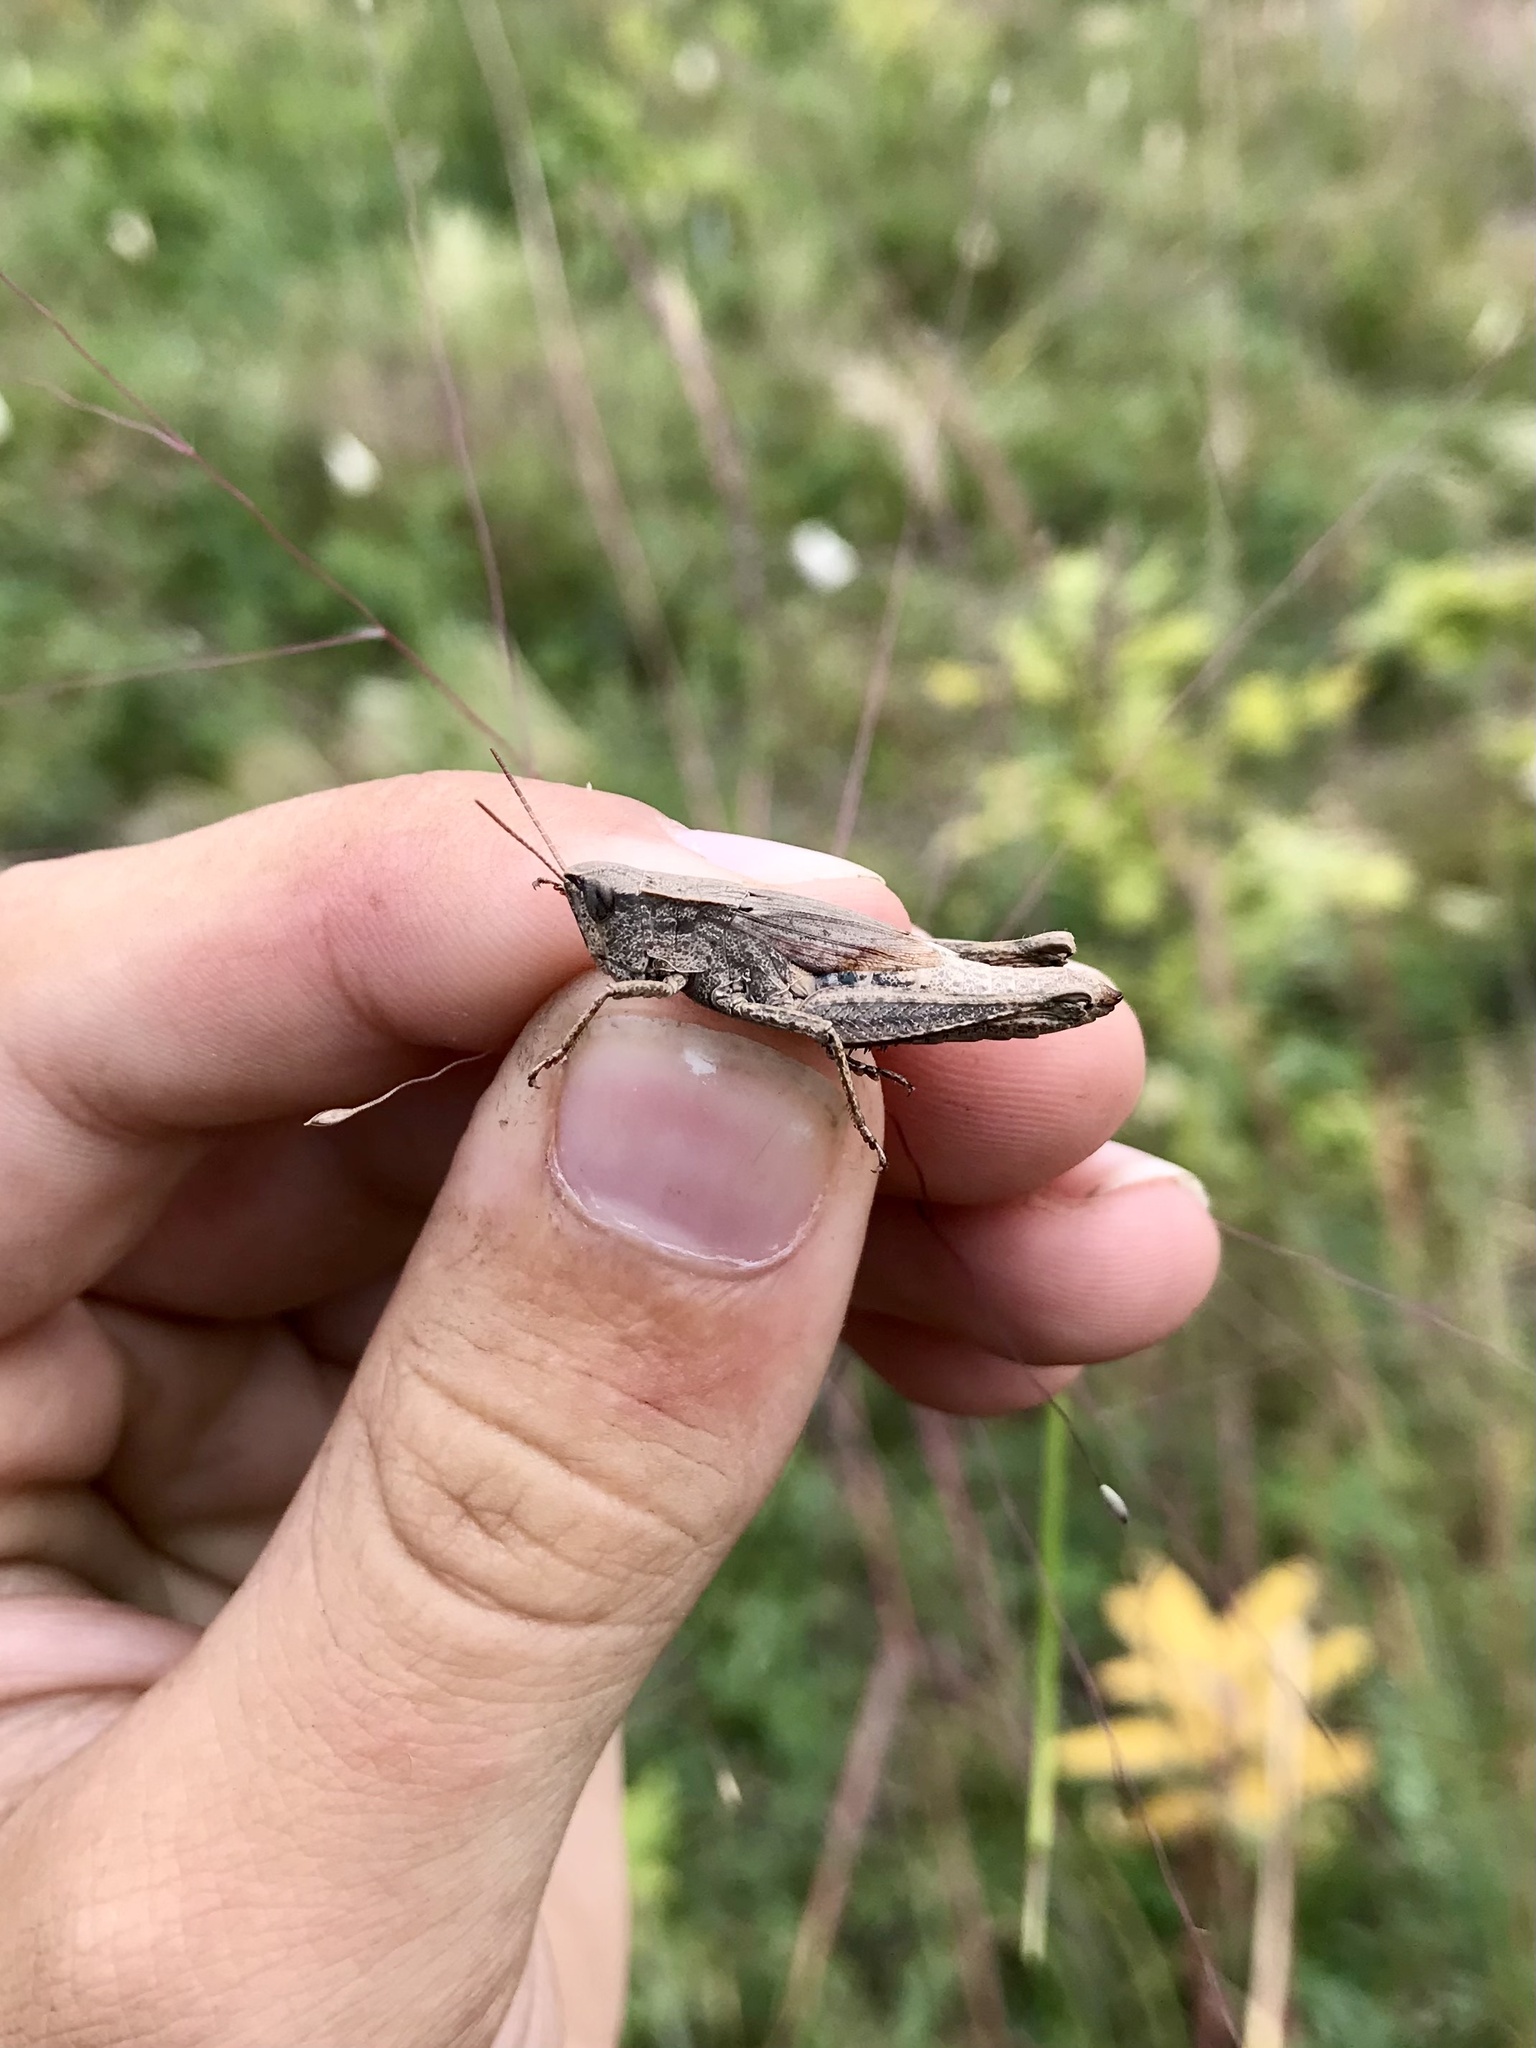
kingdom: Animalia
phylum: Arthropoda
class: Insecta
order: Orthoptera
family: Acrididae
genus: Dichromorpha
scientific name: Dichromorpha viridis
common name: Short-winged green grasshopper
